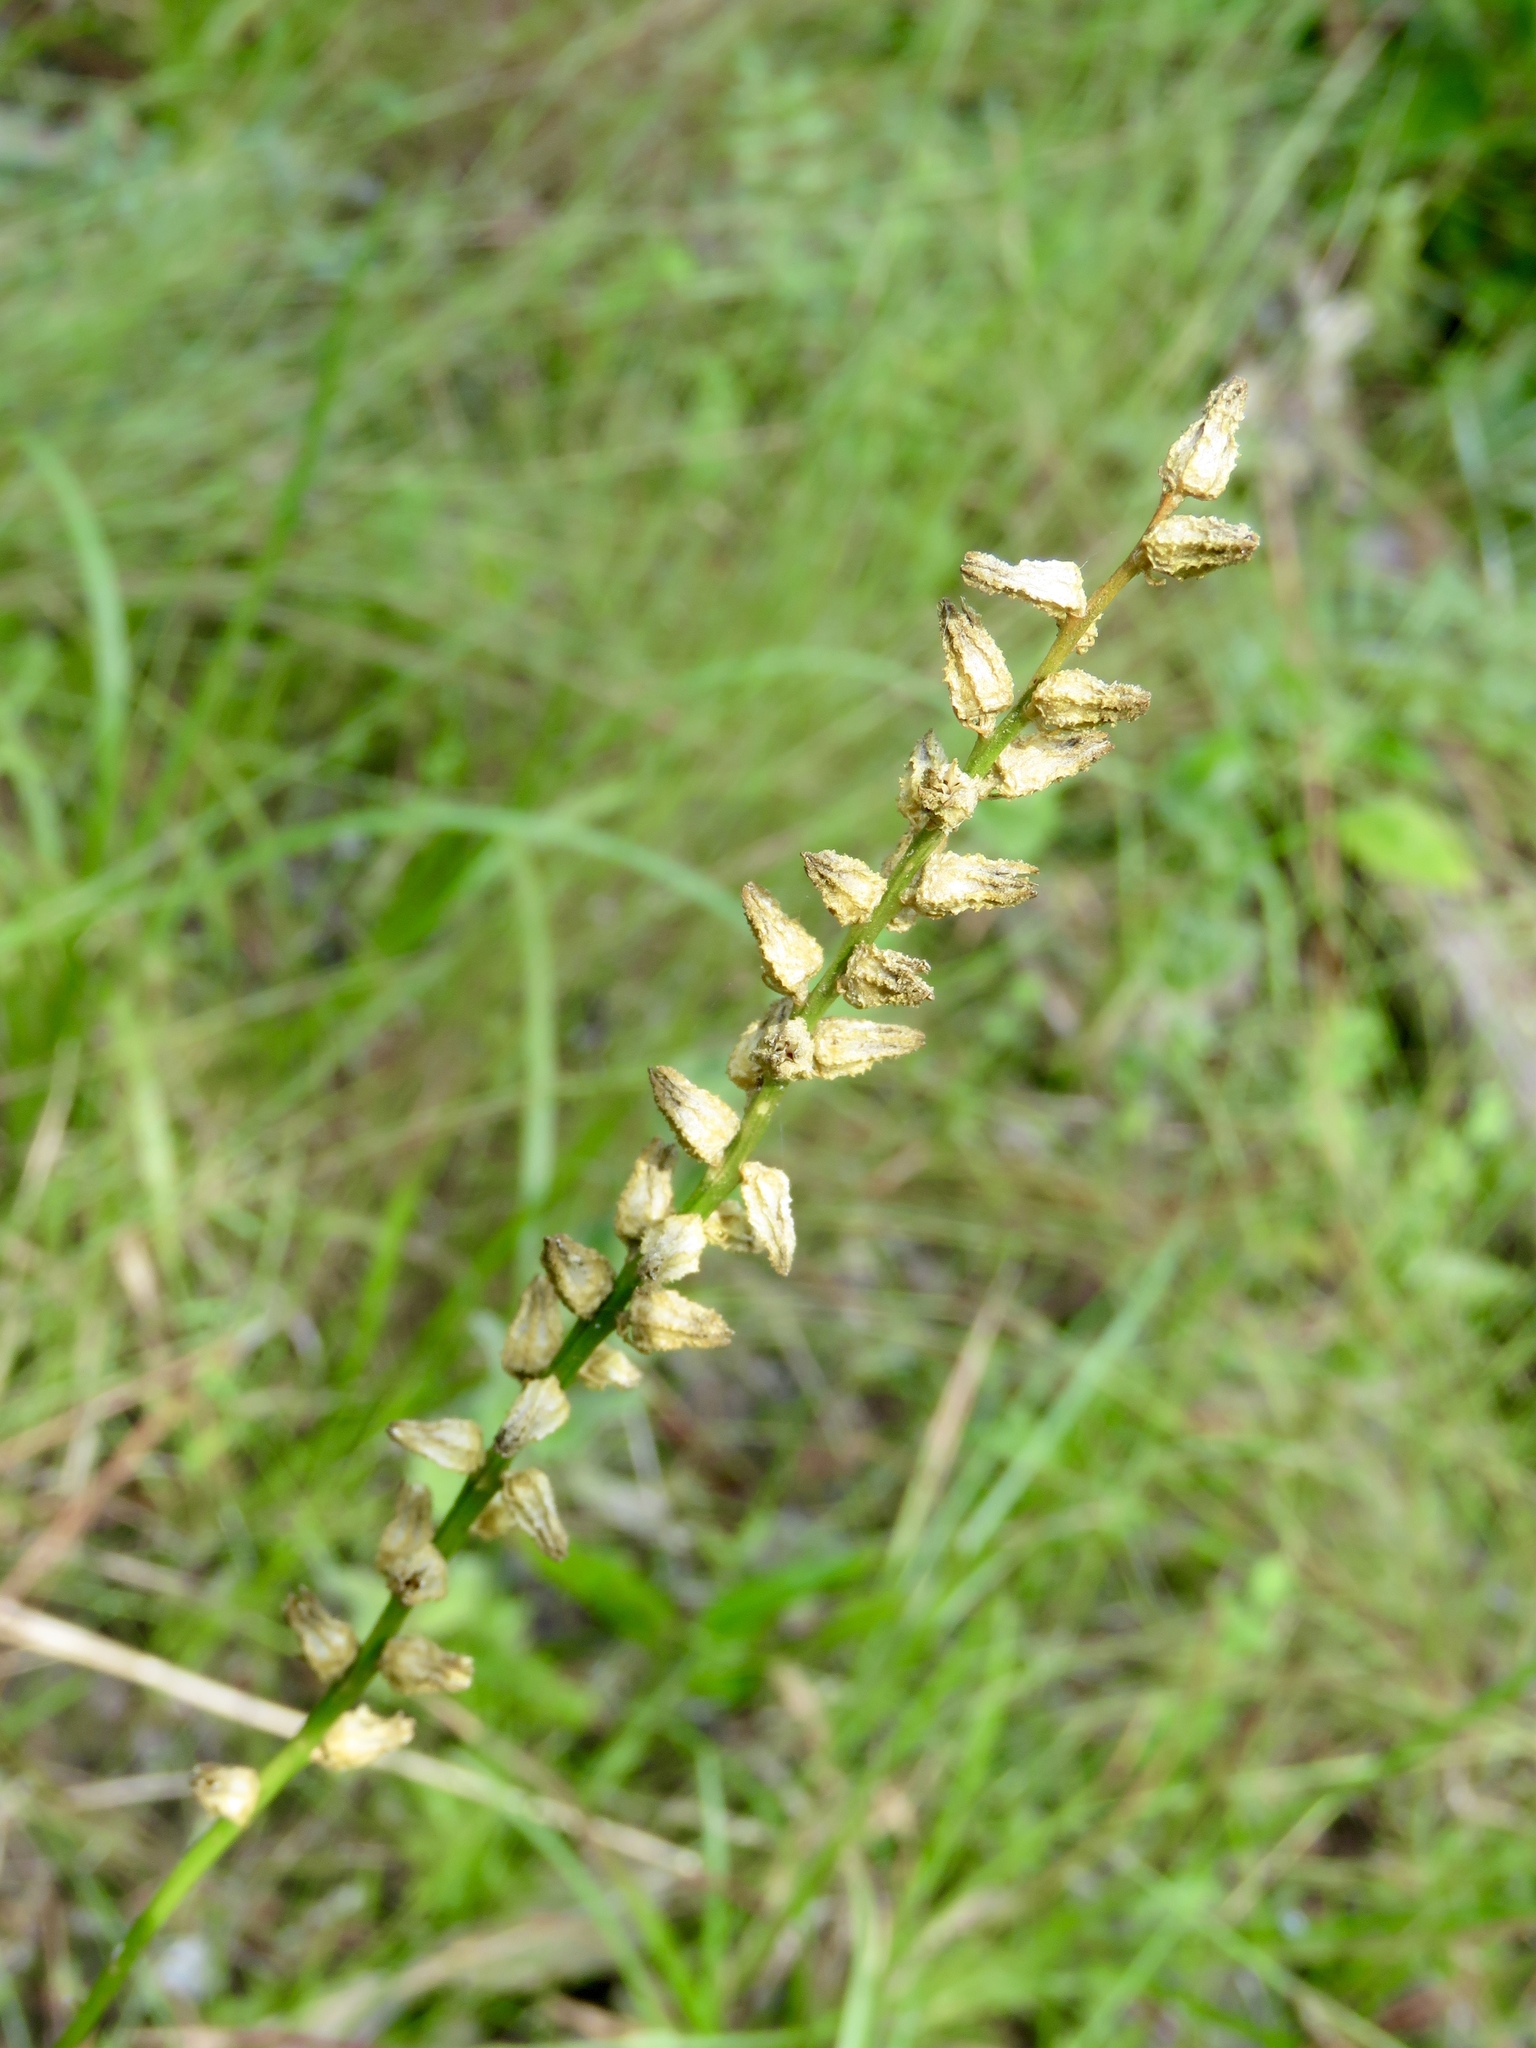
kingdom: Plantae
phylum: Tracheophyta
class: Liliopsida
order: Dioscoreales
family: Nartheciaceae
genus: Aletris
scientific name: Aletris aurea
